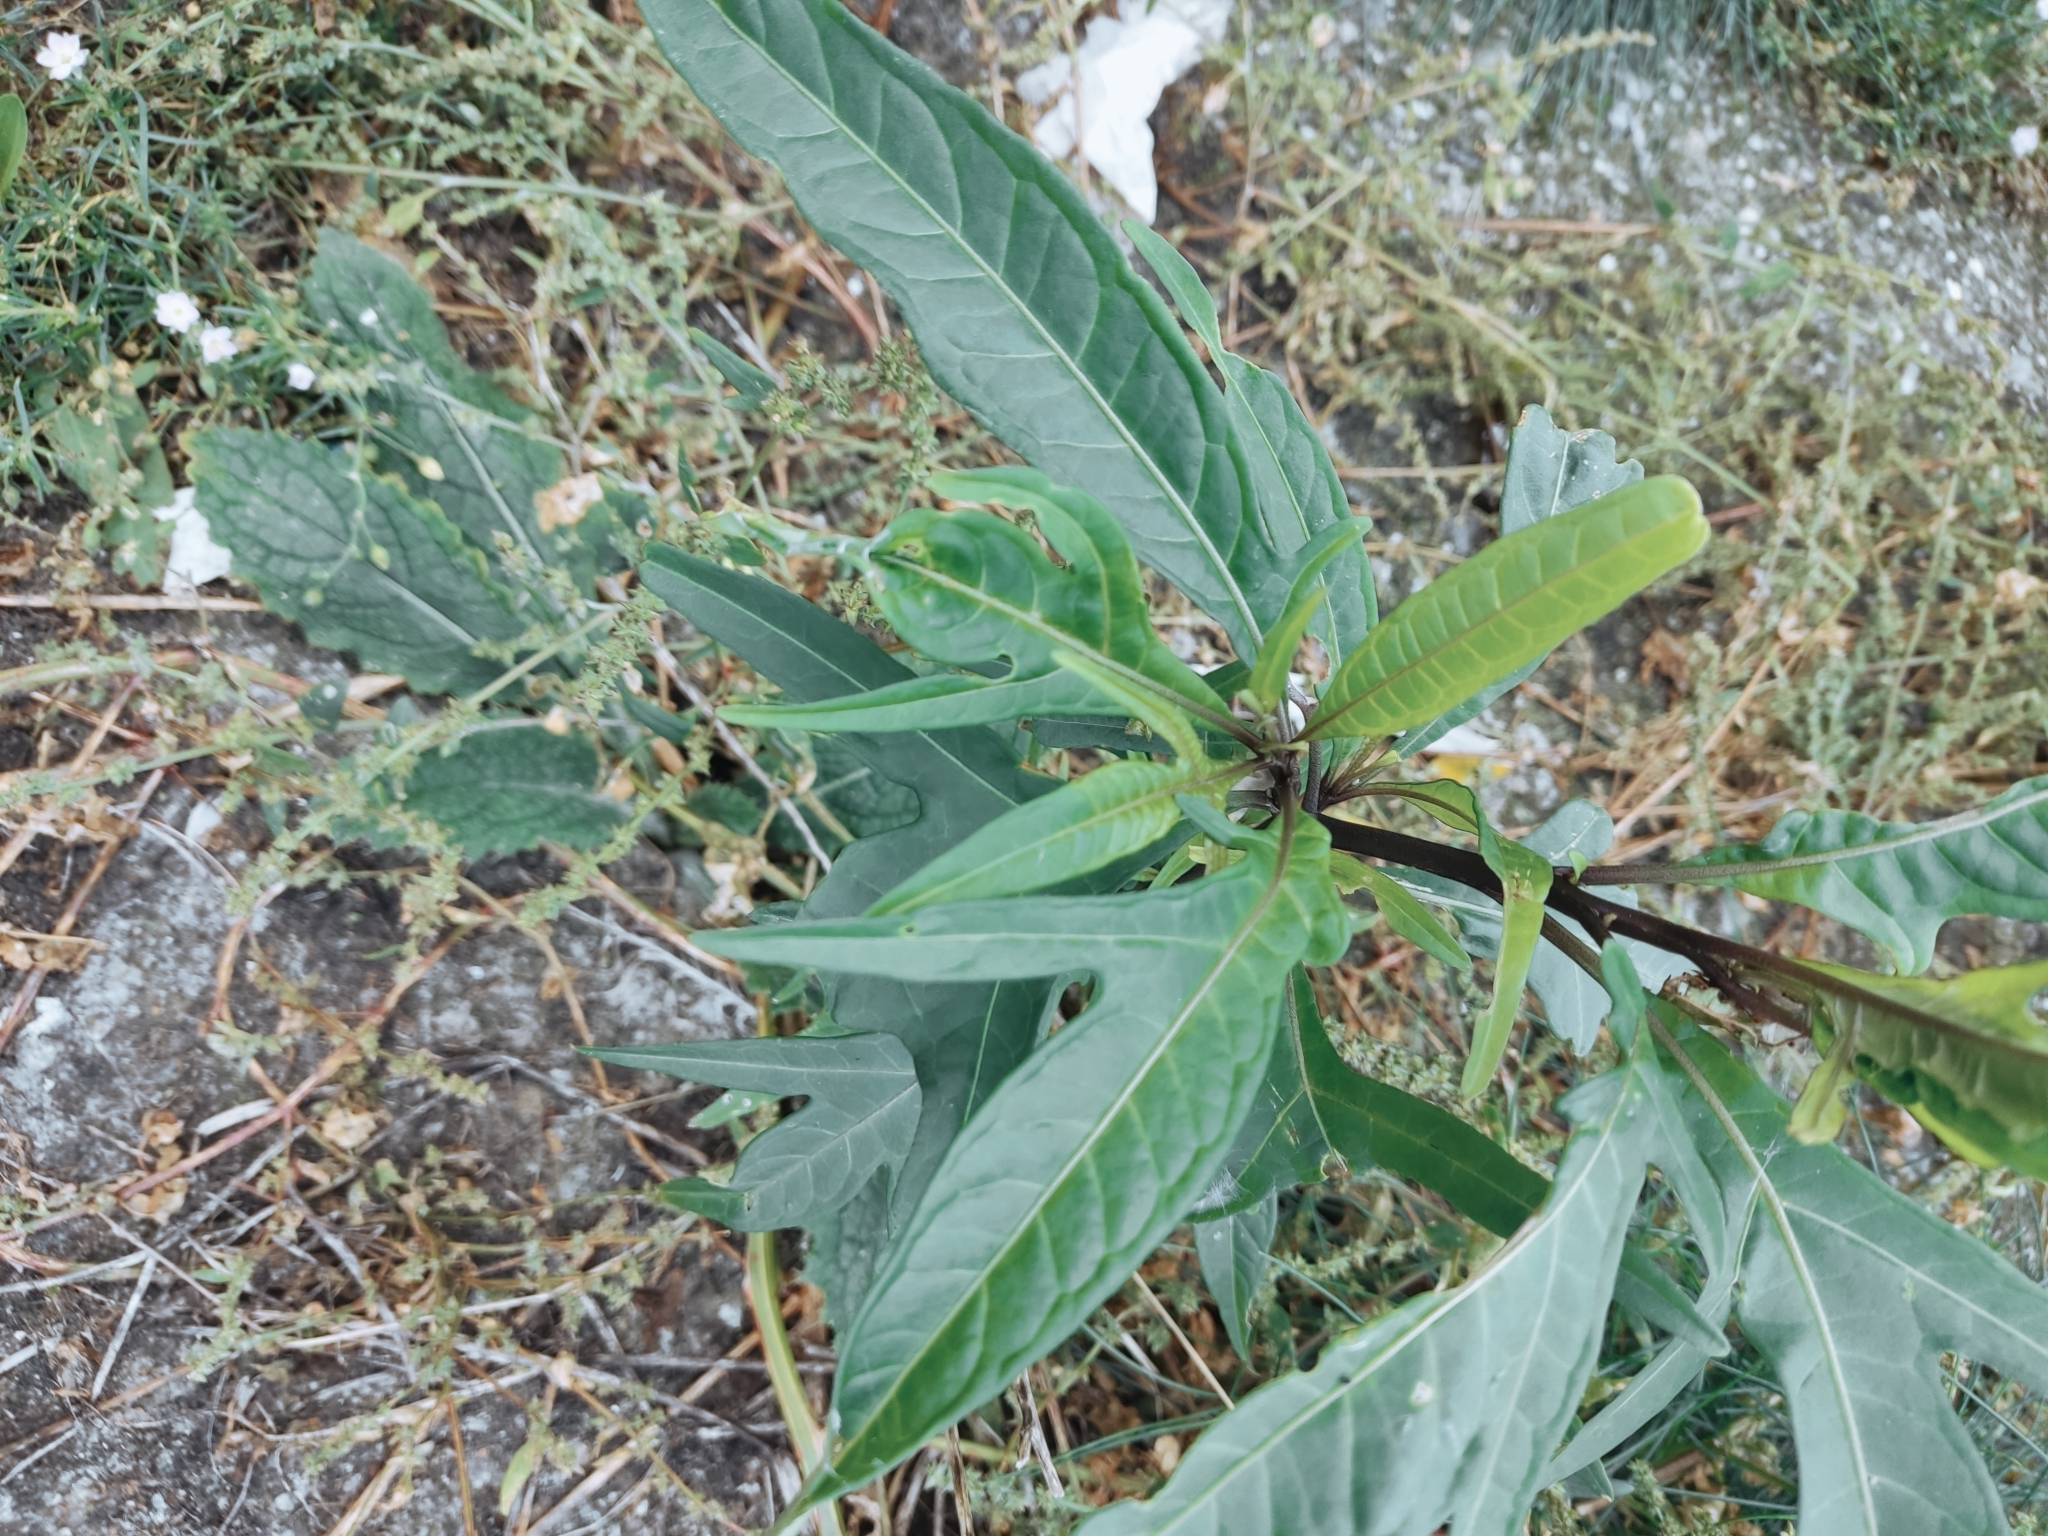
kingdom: Plantae
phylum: Tracheophyta
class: Magnoliopsida
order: Solanales
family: Solanaceae
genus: Solanum
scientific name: Solanum laciniatum
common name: Kangaroo-apple
